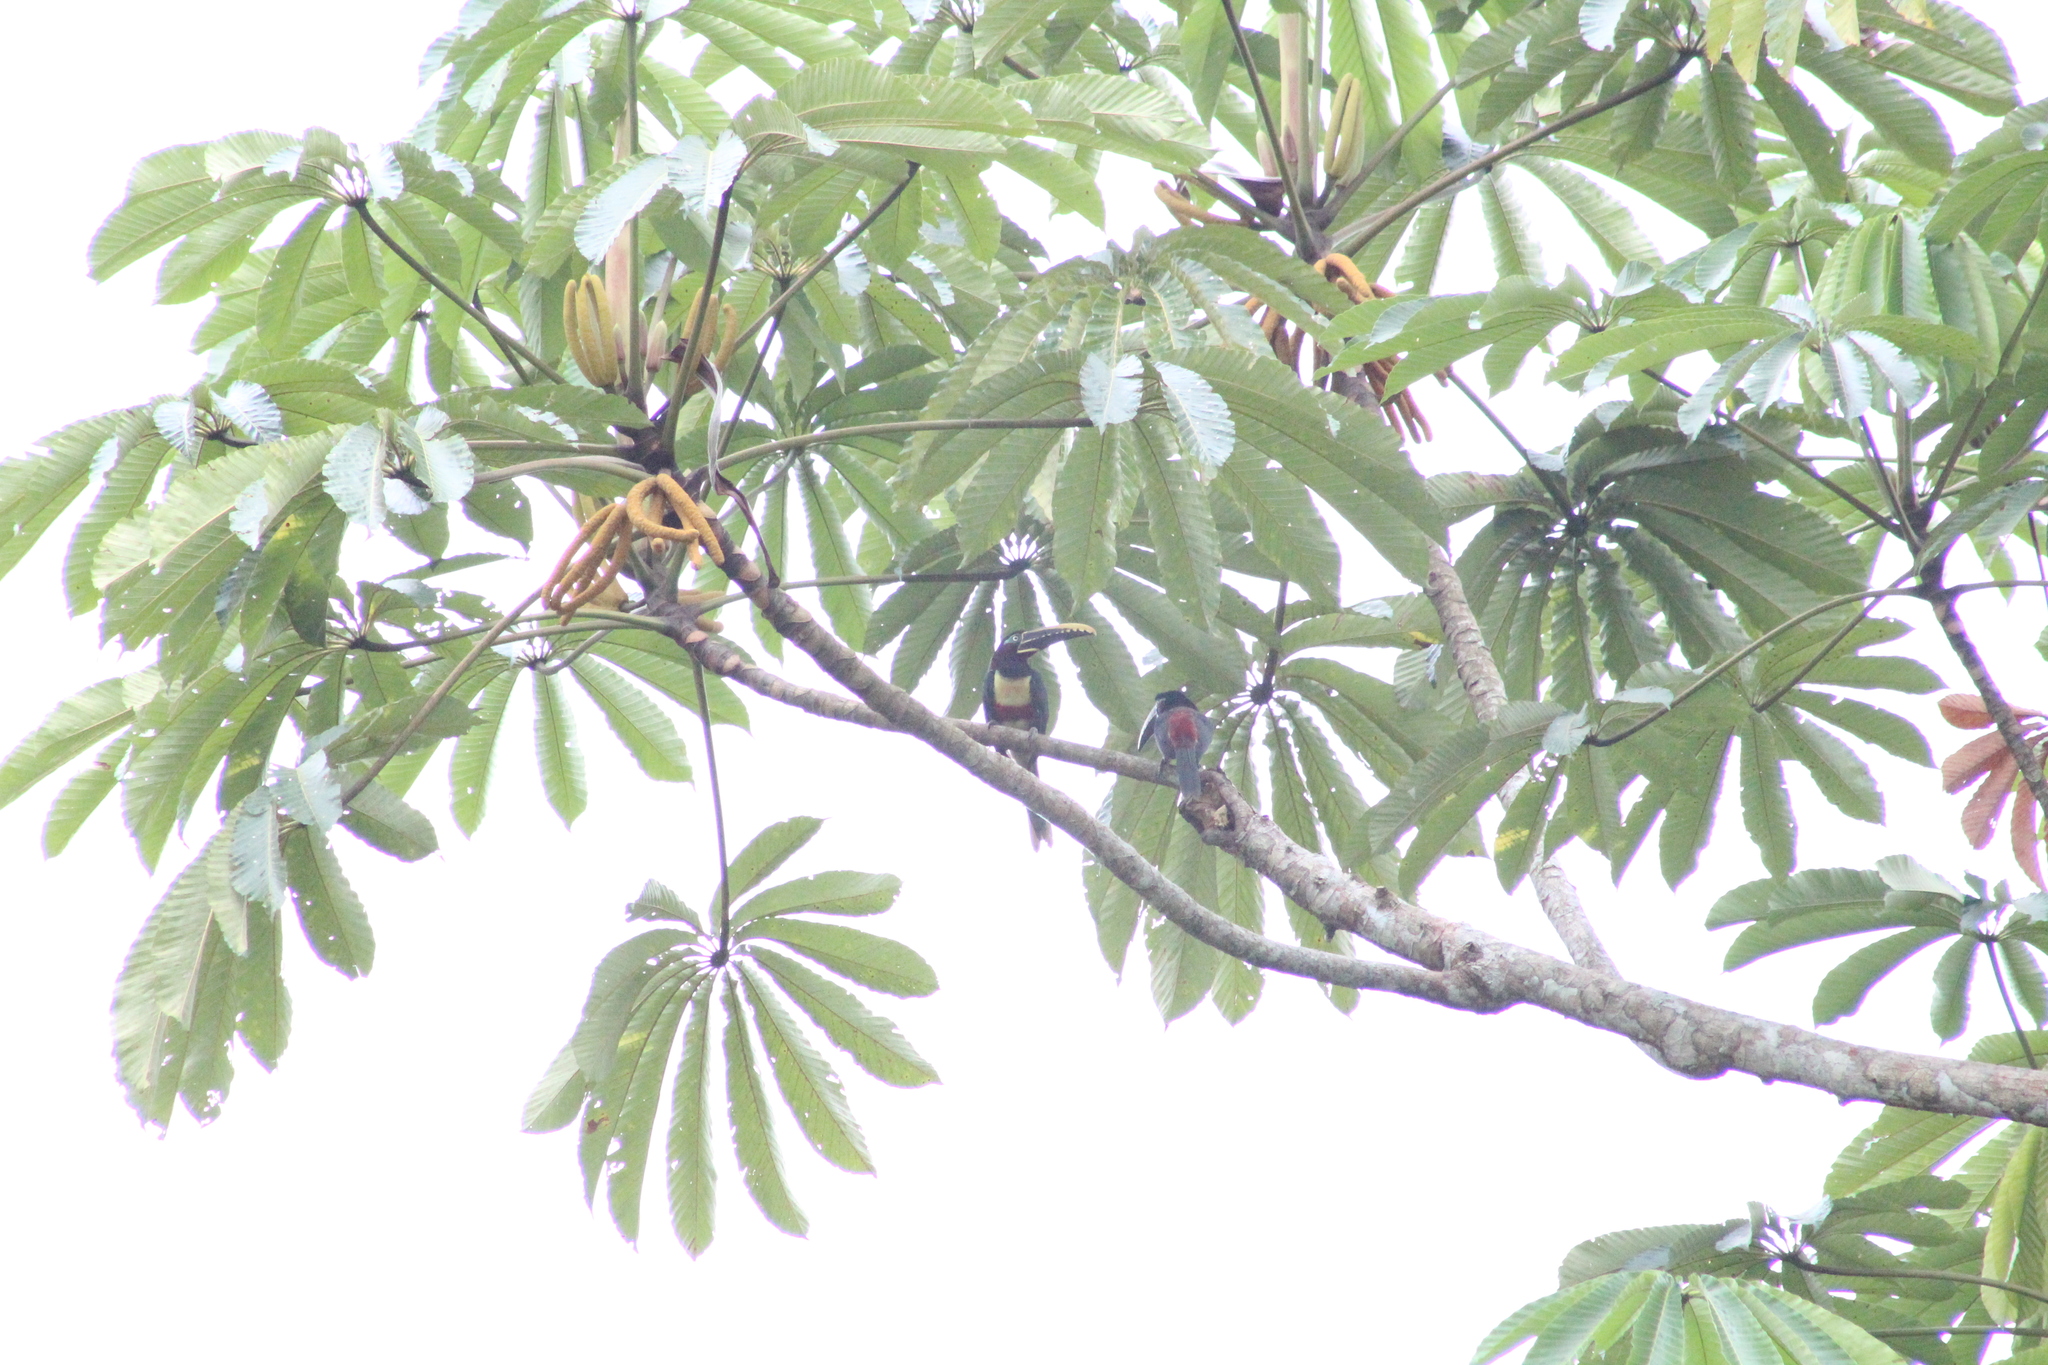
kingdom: Animalia
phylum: Chordata
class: Aves
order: Piciformes
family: Ramphastidae
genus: Pteroglossus
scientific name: Pteroglossus castanotis
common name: Chestnut-eared aracari
